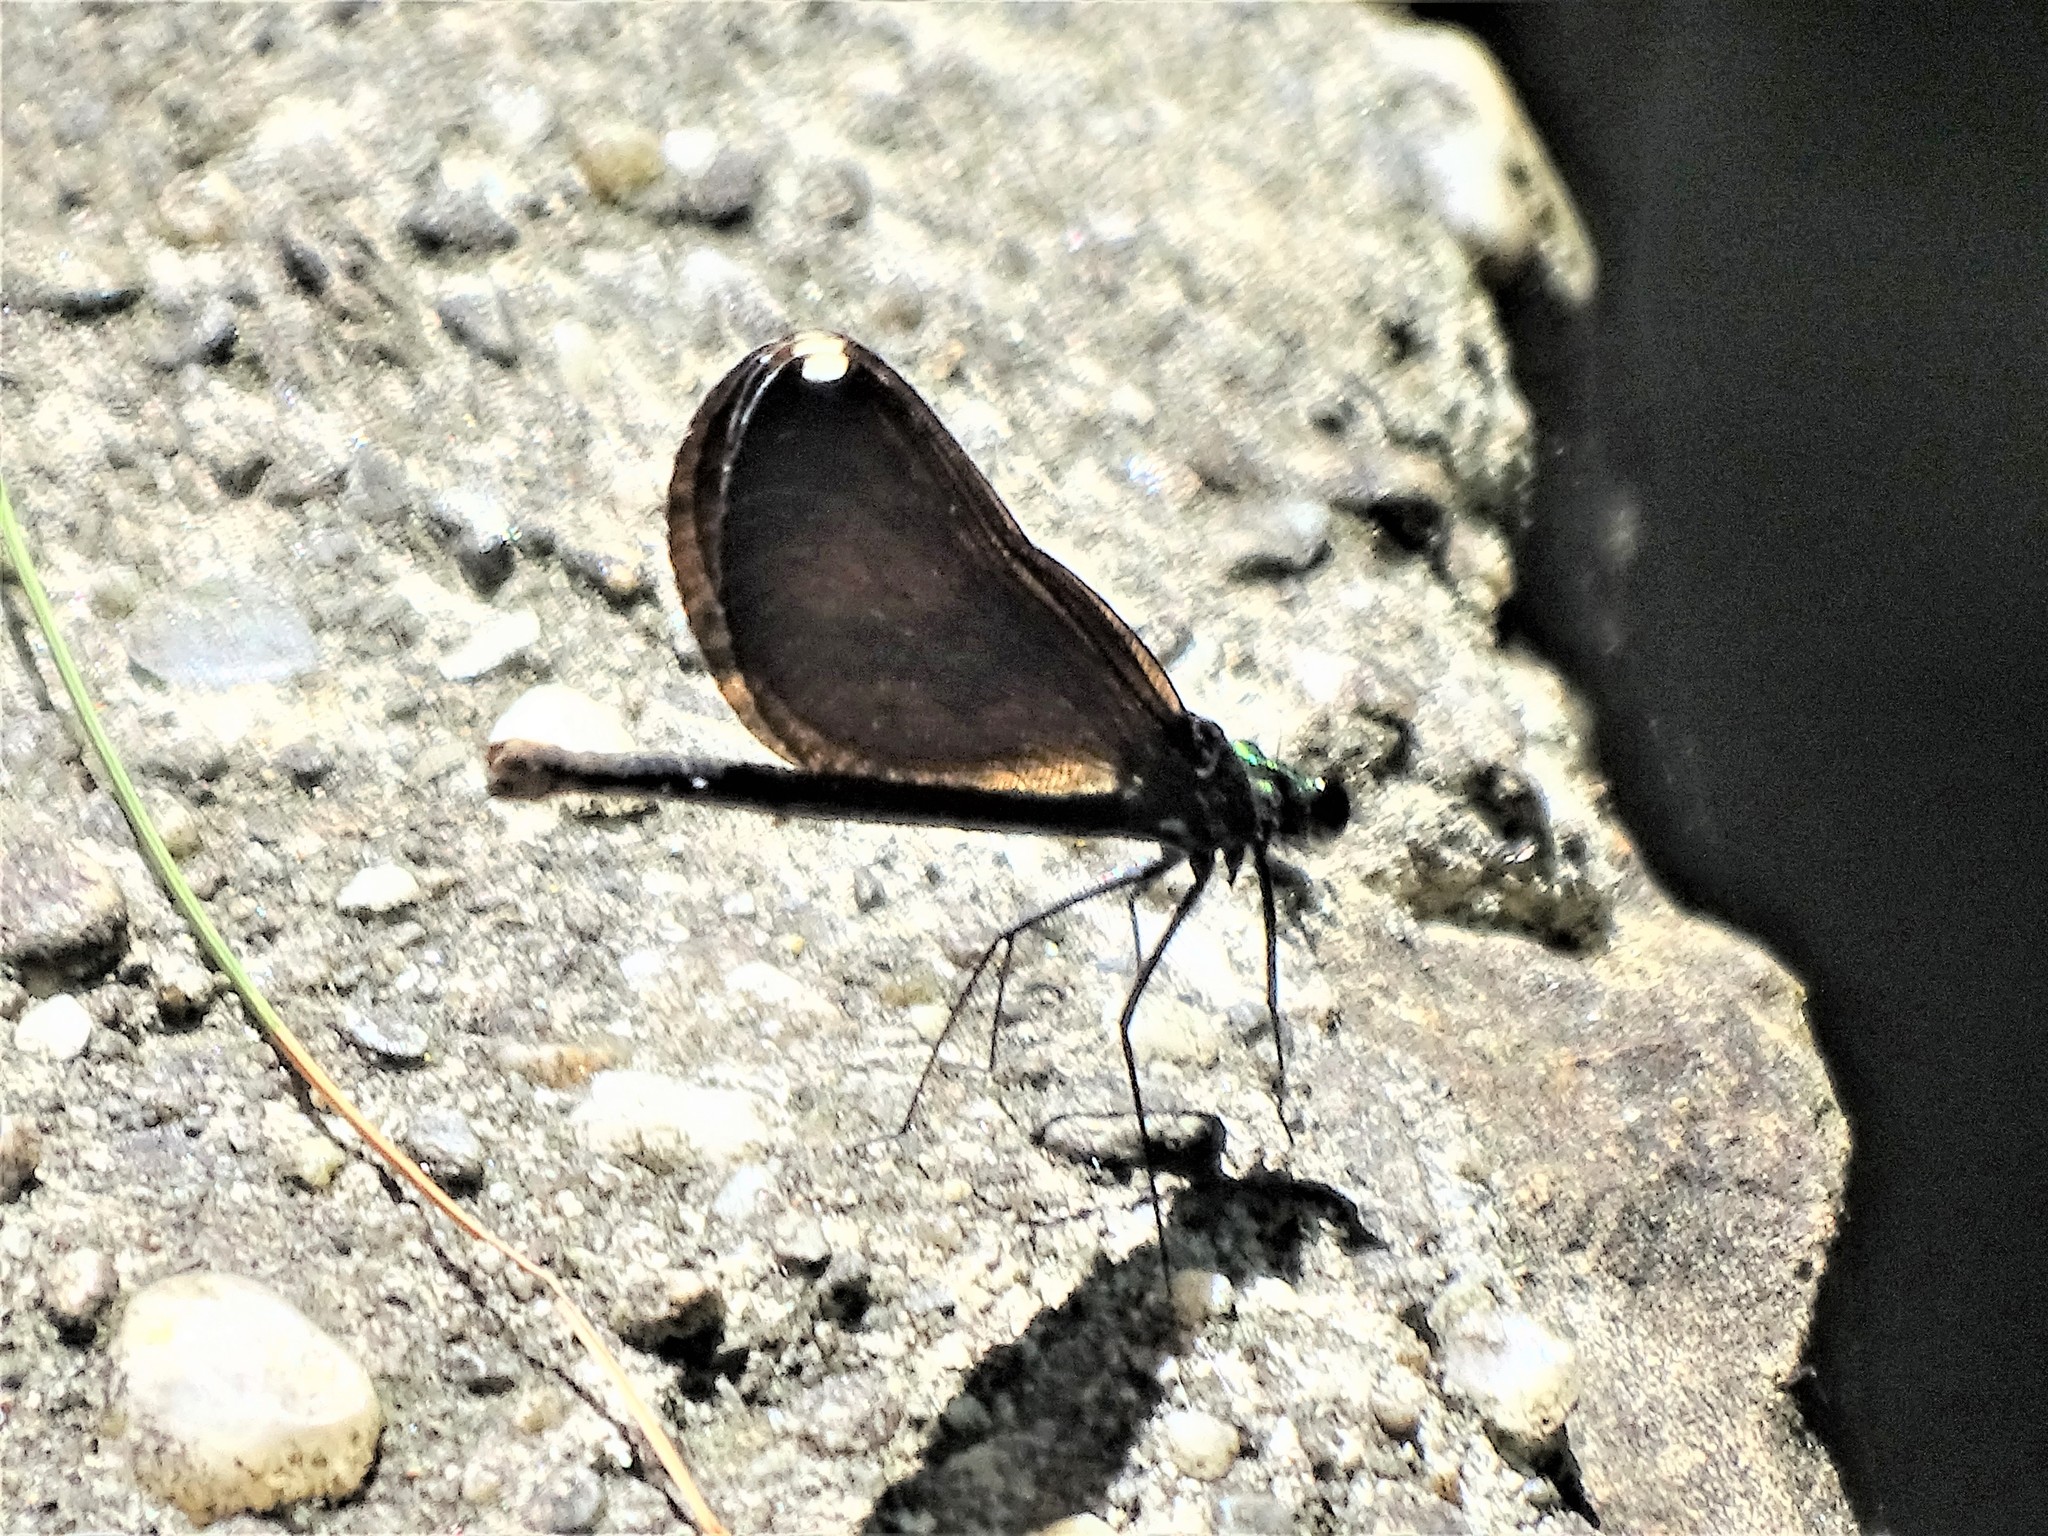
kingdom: Animalia
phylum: Arthropoda
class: Insecta
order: Odonata
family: Calopterygidae
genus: Calopteryx
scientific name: Calopteryx maculata
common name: Ebony jewelwing
